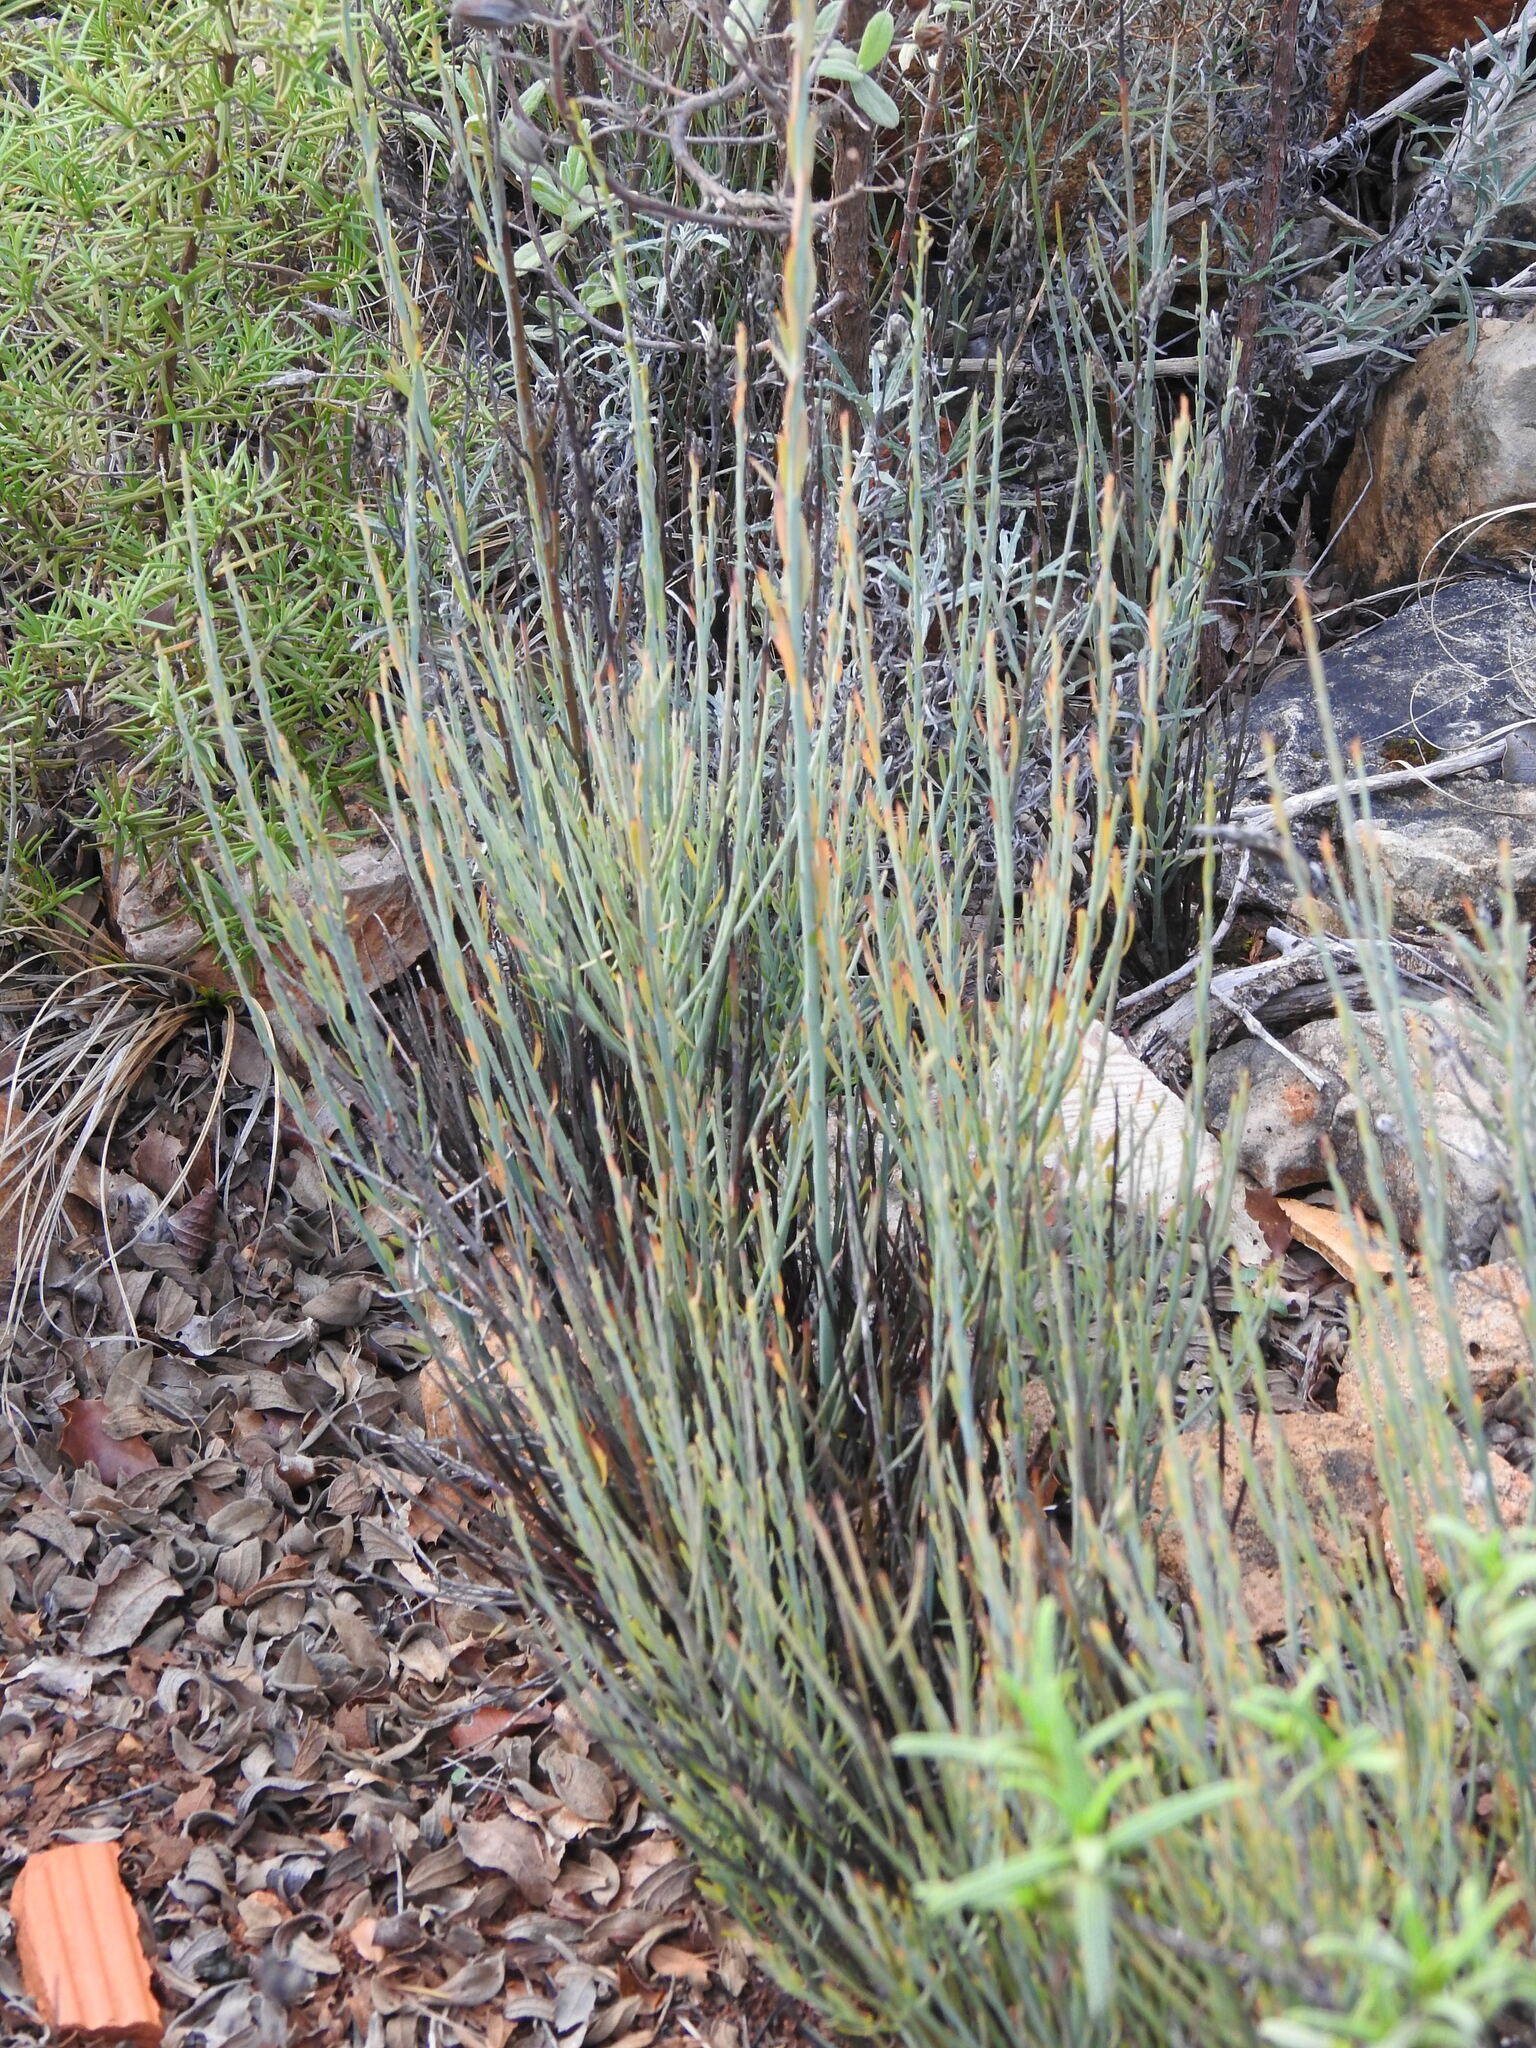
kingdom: Plantae
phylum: Tracheophyta
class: Magnoliopsida
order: Santalales
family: Santalaceae
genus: Osyris
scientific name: Osyris alba
